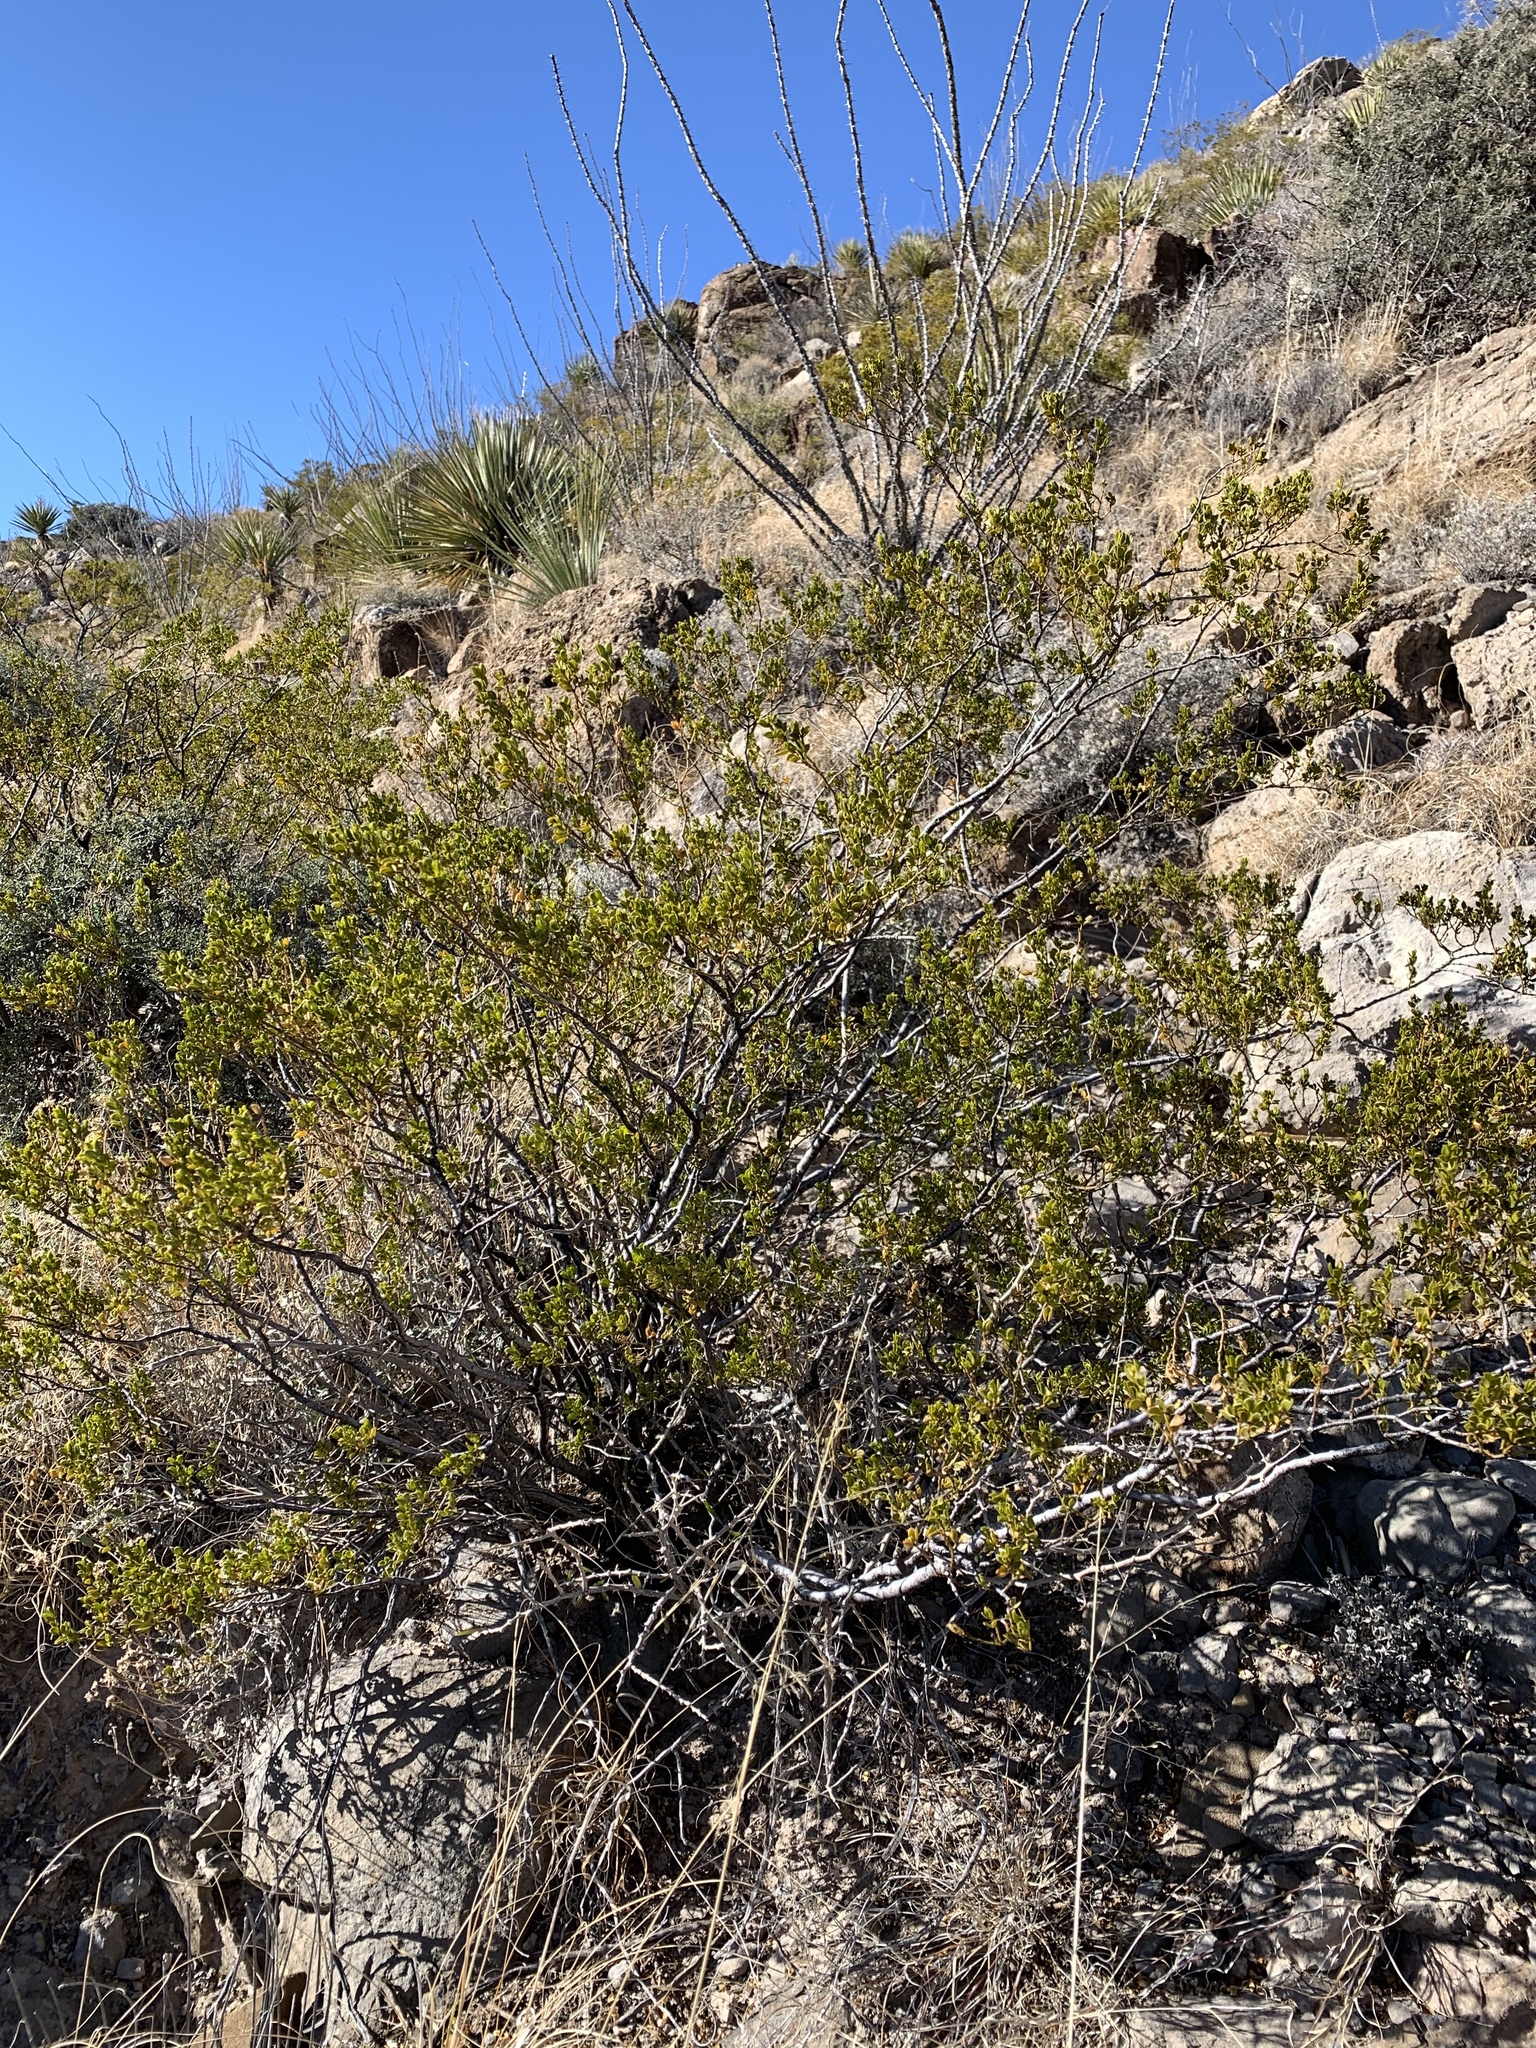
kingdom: Plantae
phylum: Tracheophyta
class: Magnoliopsida
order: Zygophyllales
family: Zygophyllaceae
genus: Larrea
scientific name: Larrea tridentata
